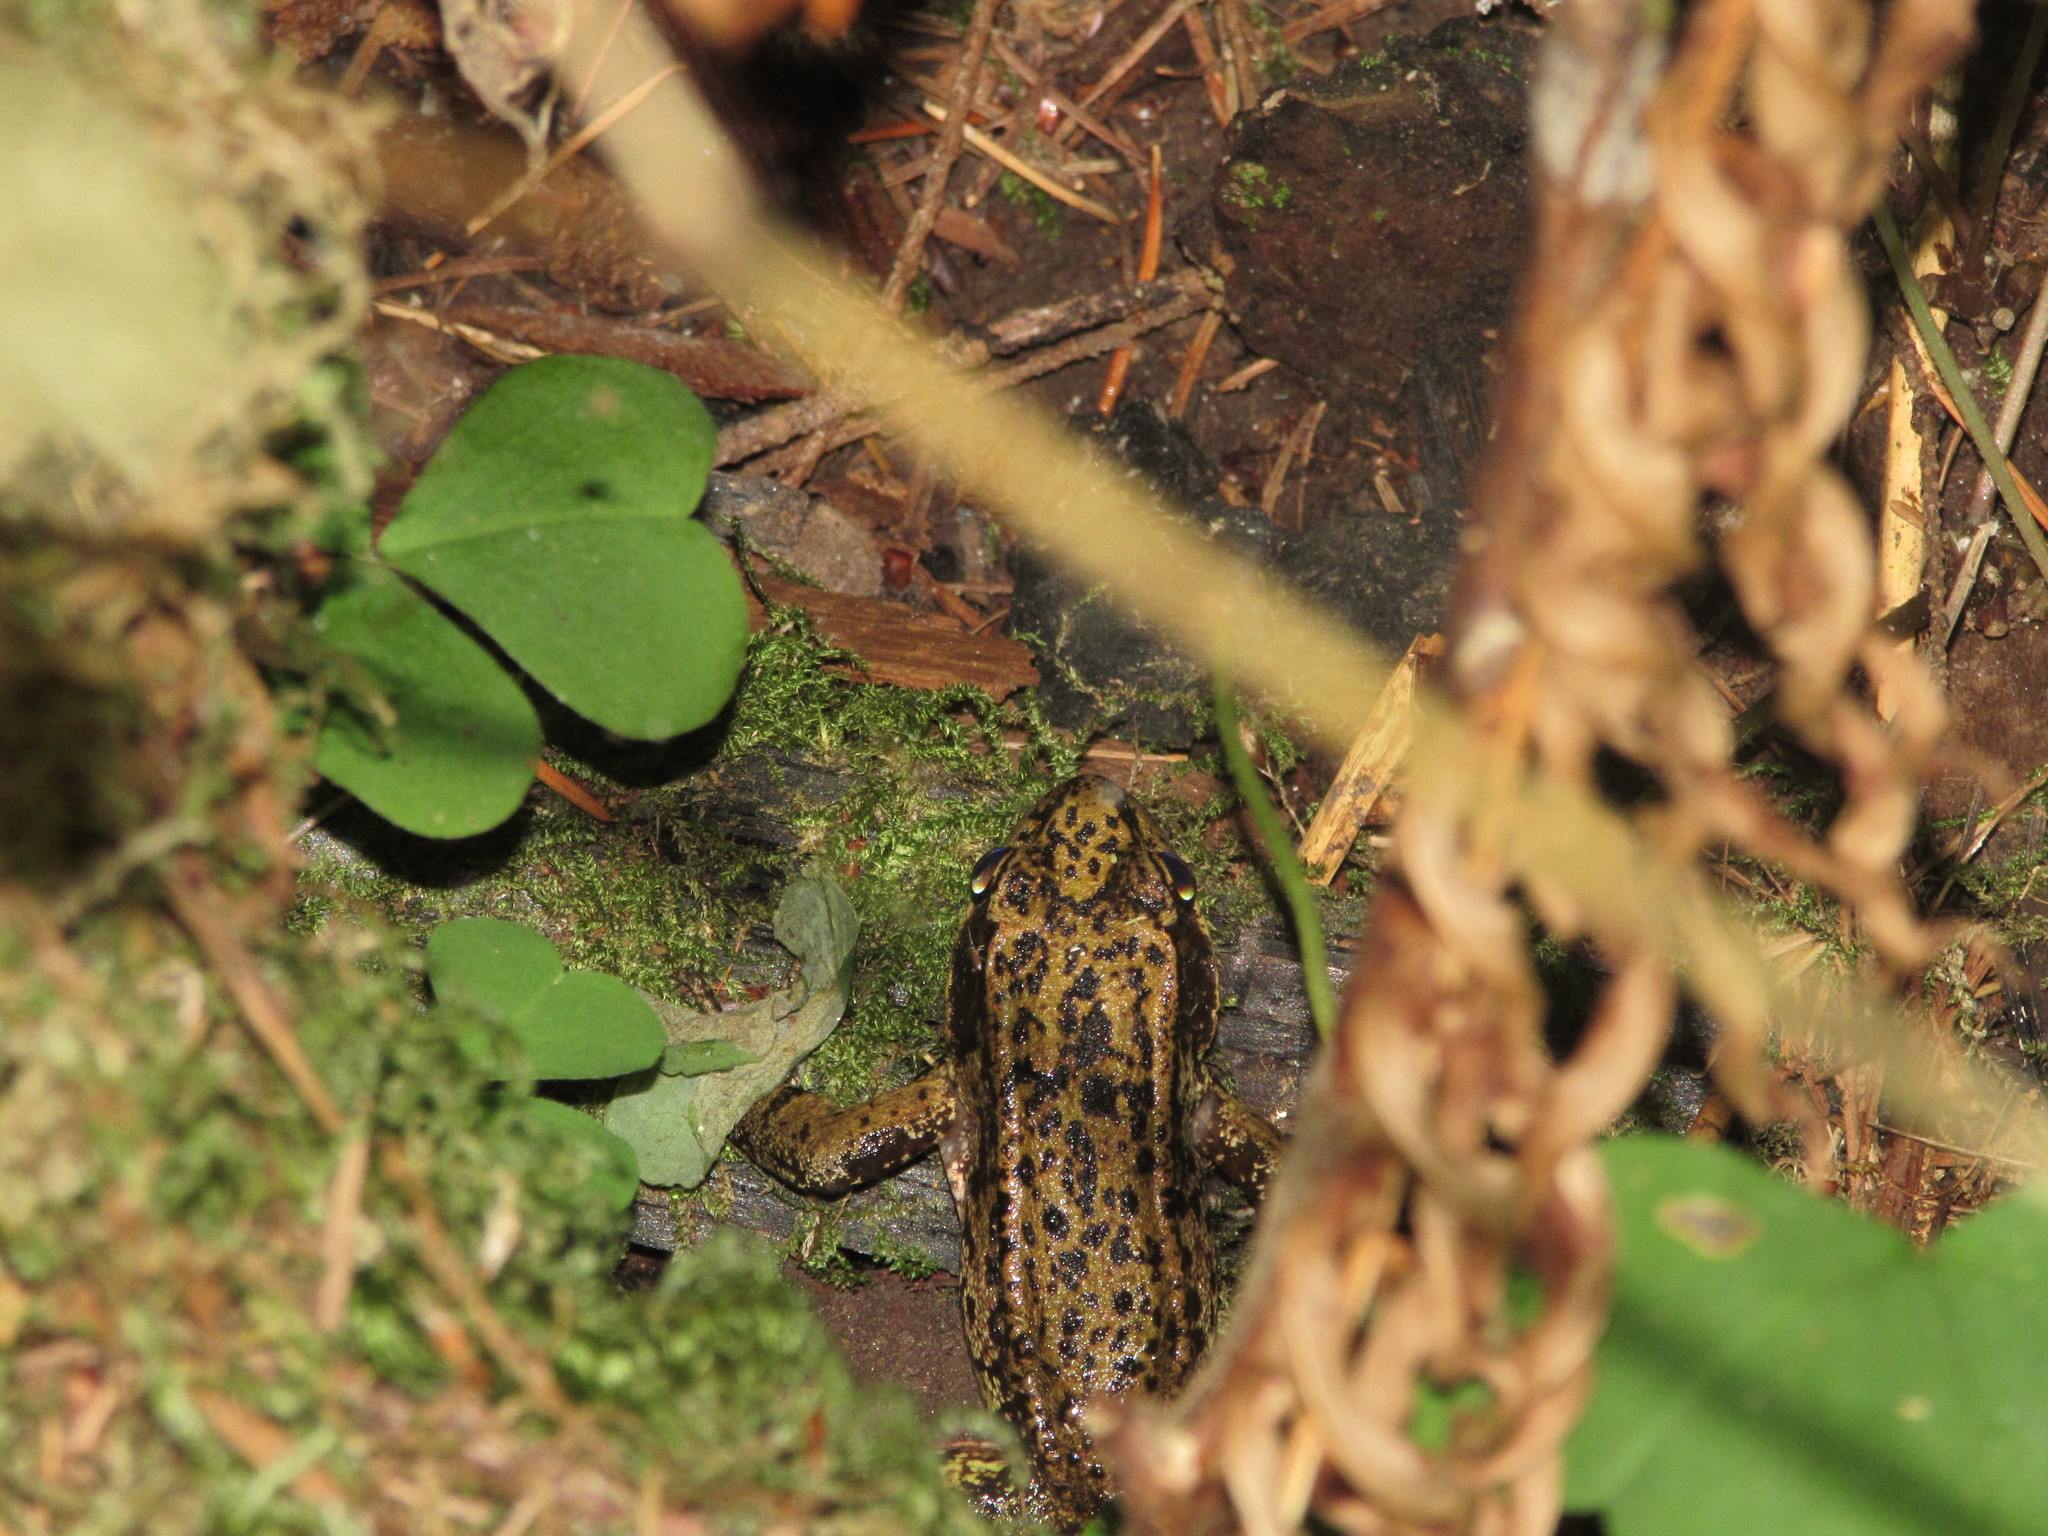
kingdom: Animalia
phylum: Chordata
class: Amphibia
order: Anura
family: Ranidae
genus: Rana
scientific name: Rana aurora
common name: Red-legged frog
